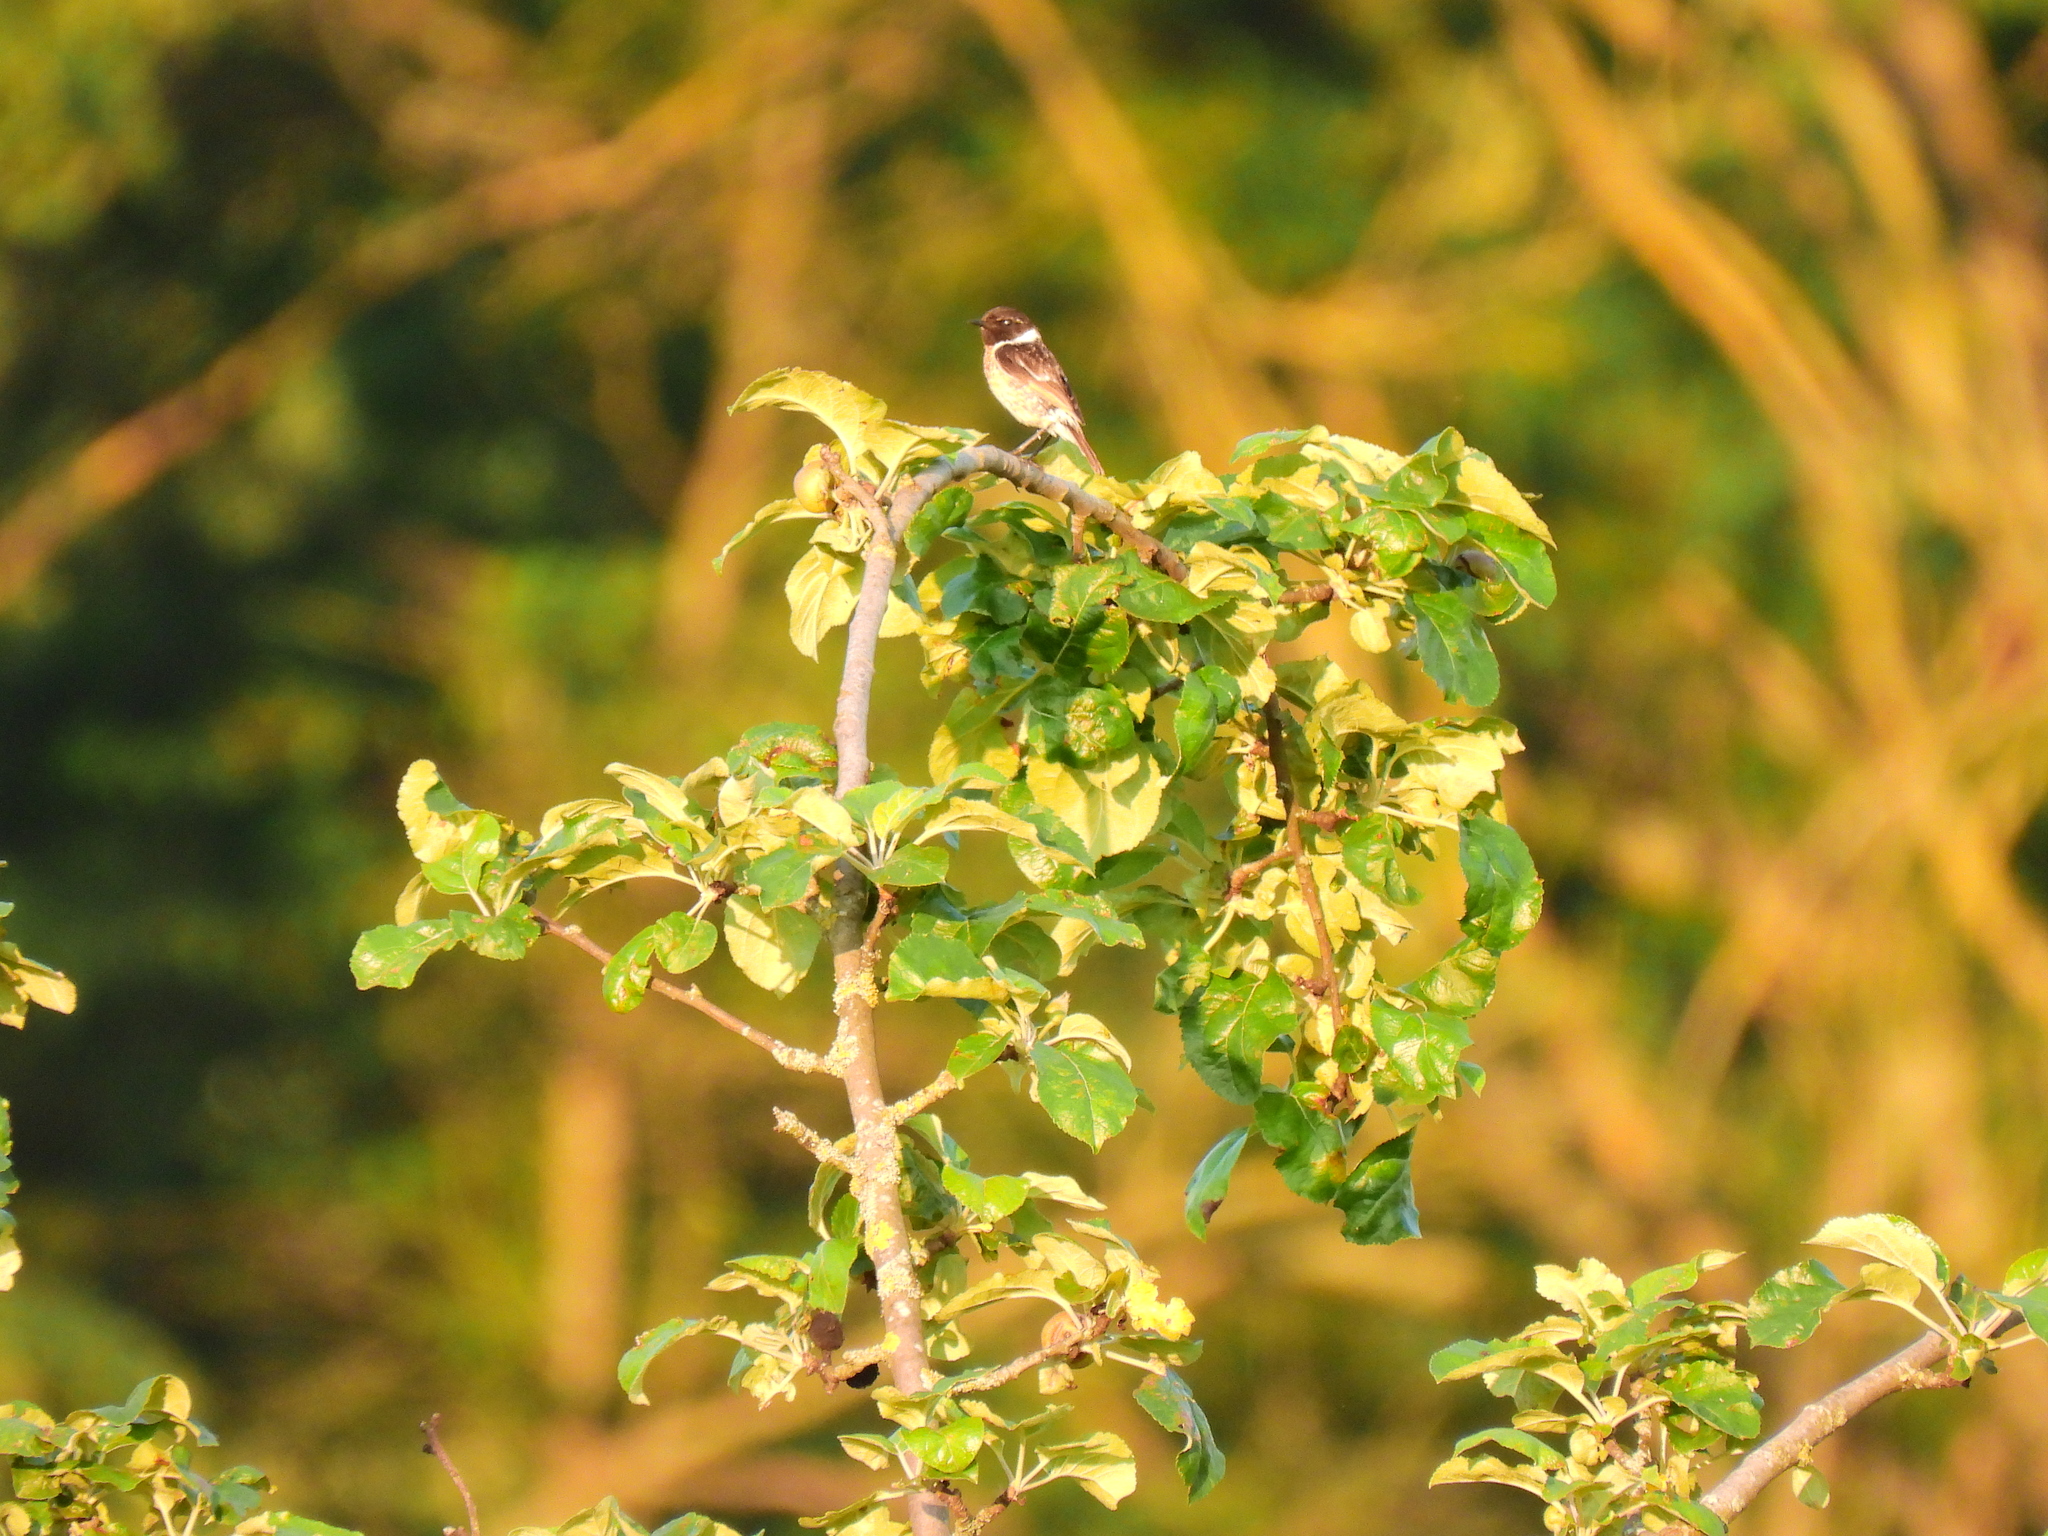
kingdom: Animalia
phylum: Chordata
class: Aves
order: Passeriformes
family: Muscicapidae
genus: Saxicola
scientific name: Saxicola rubicola
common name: European stonechat
